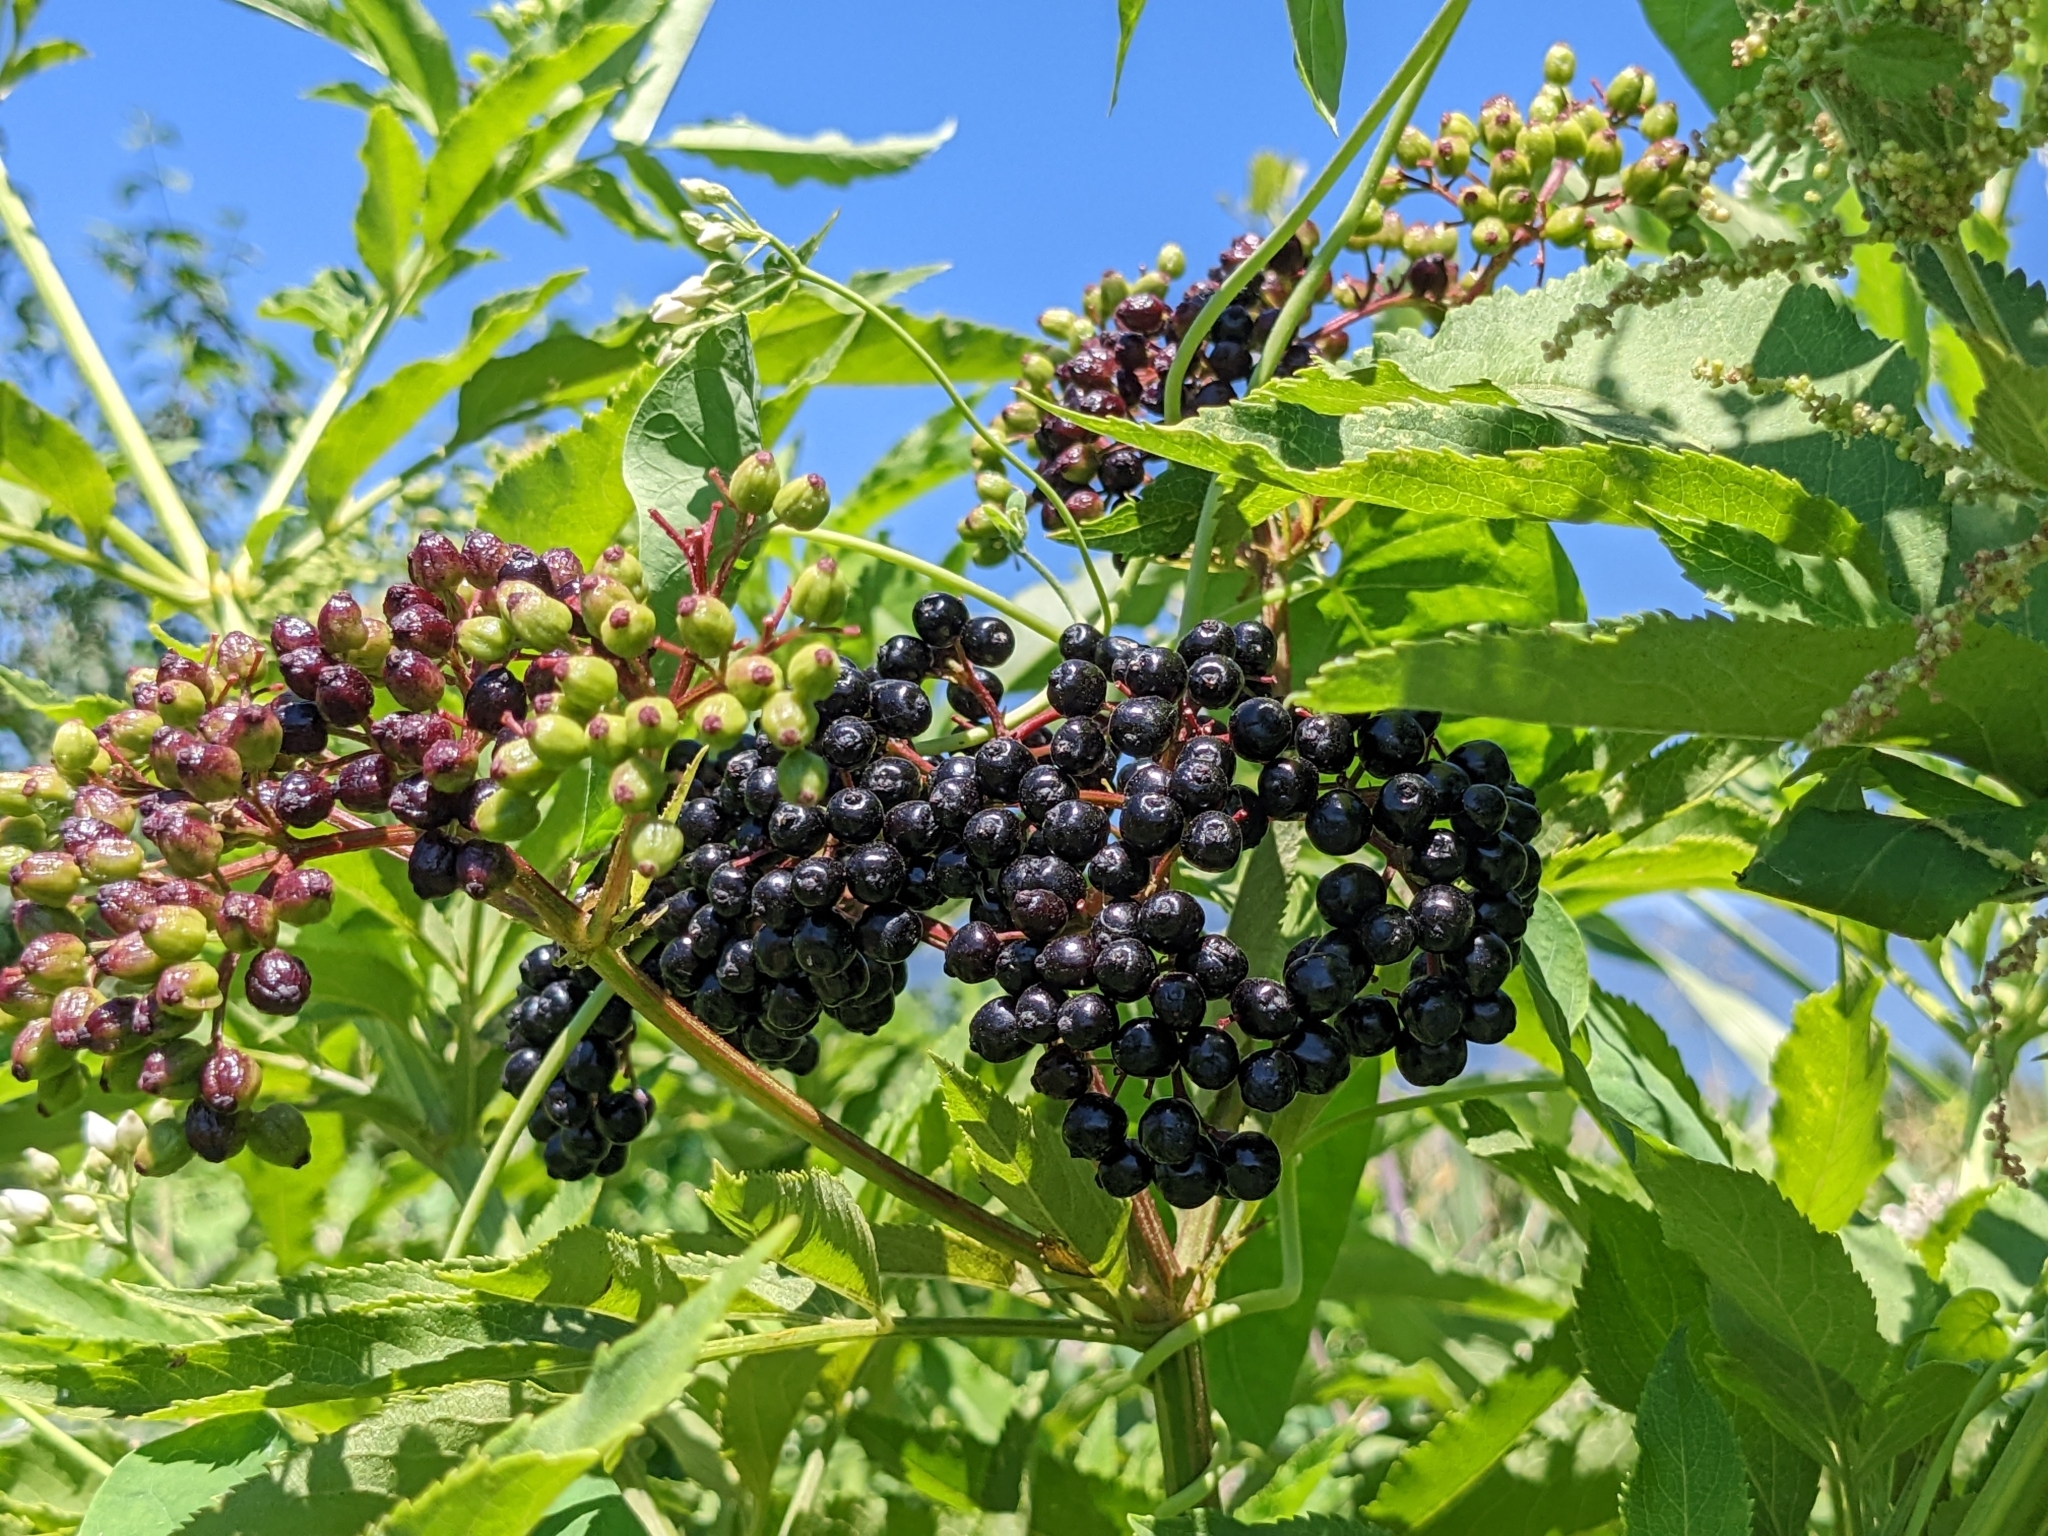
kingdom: Plantae
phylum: Tracheophyta
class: Magnoliopsida
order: Dipsacales
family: Viburnaceae
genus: Sambucus
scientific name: Sambucus ebulus
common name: Dwarf elder
